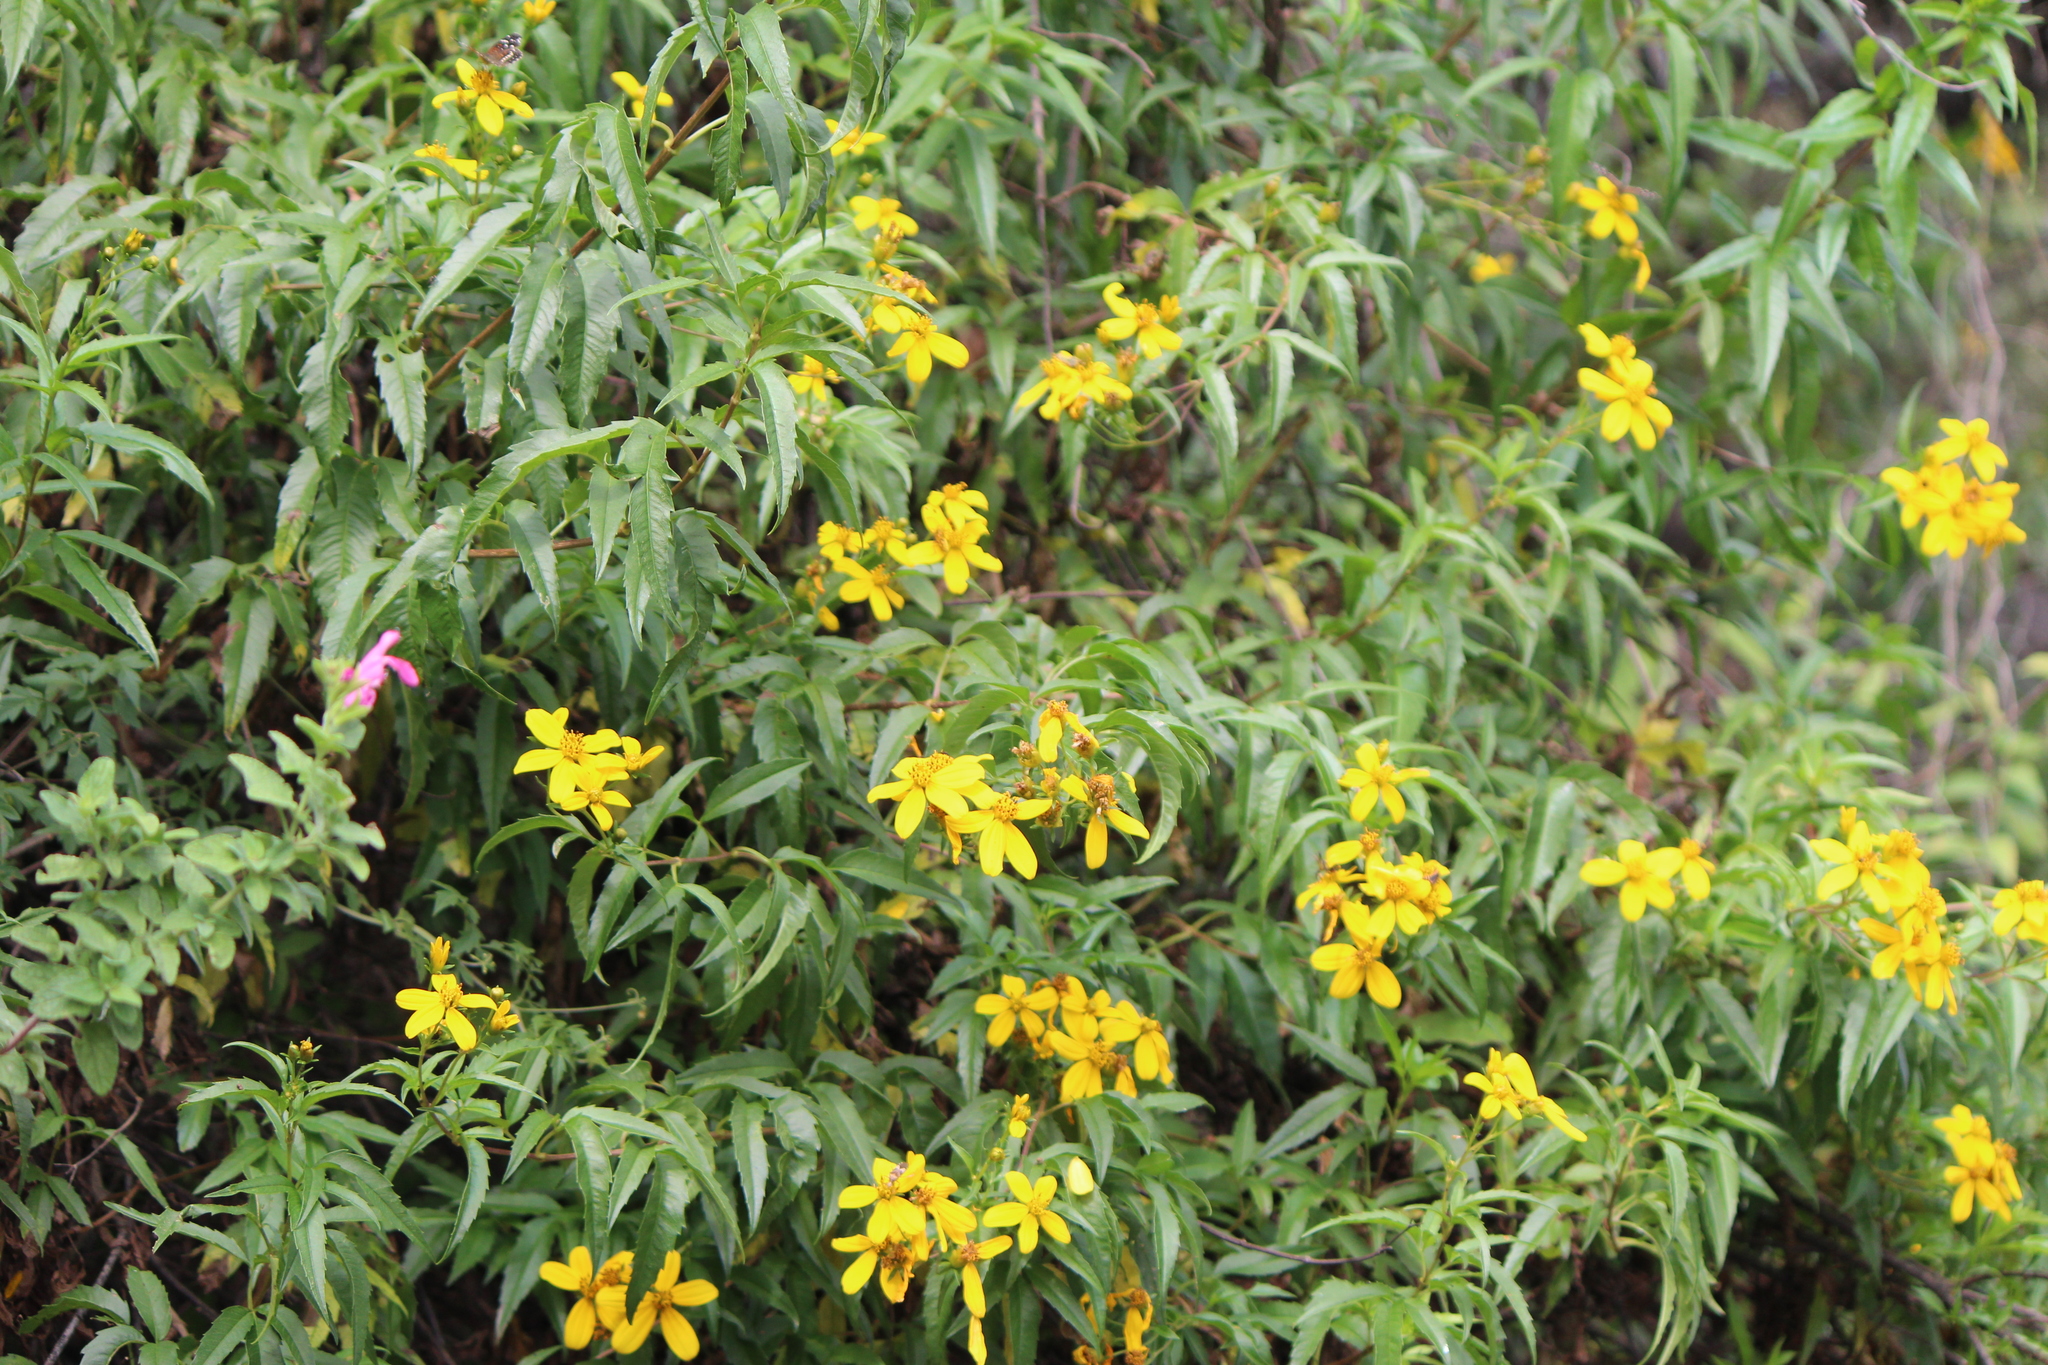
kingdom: Plantae
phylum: Tracheophyta
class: Magnoliopsida
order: Asterales
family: Asteraceae
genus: Electranthera
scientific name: Electranthera mutica
